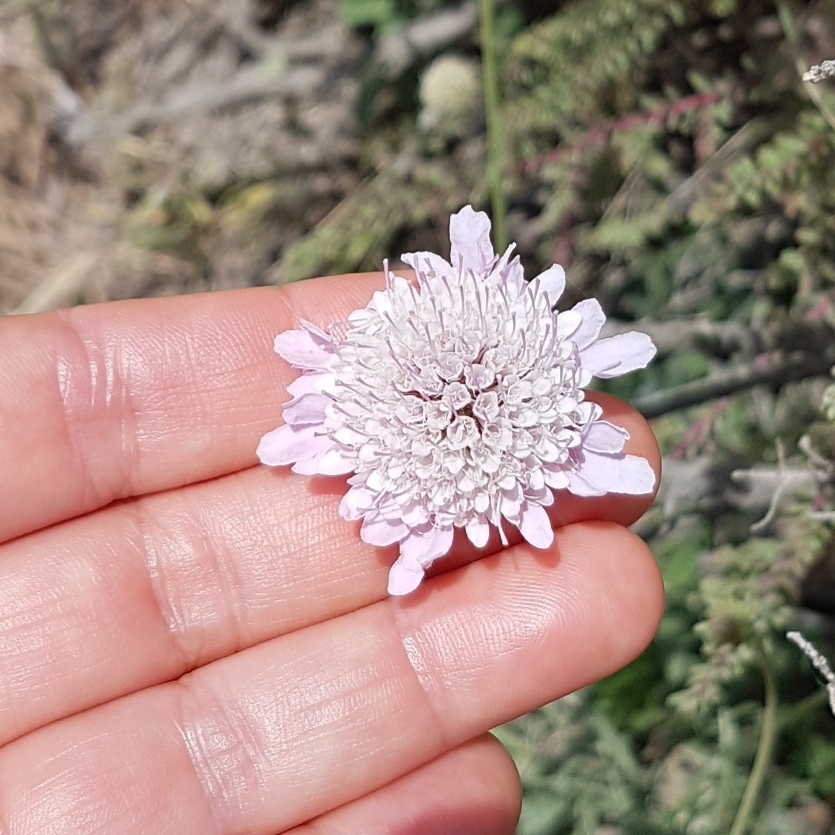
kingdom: Plantae
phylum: Tracheophyta
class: Magnoliopsida
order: Dipsacales
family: Caprifoliaceae
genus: Sixalix
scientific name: Sixalix maritima
